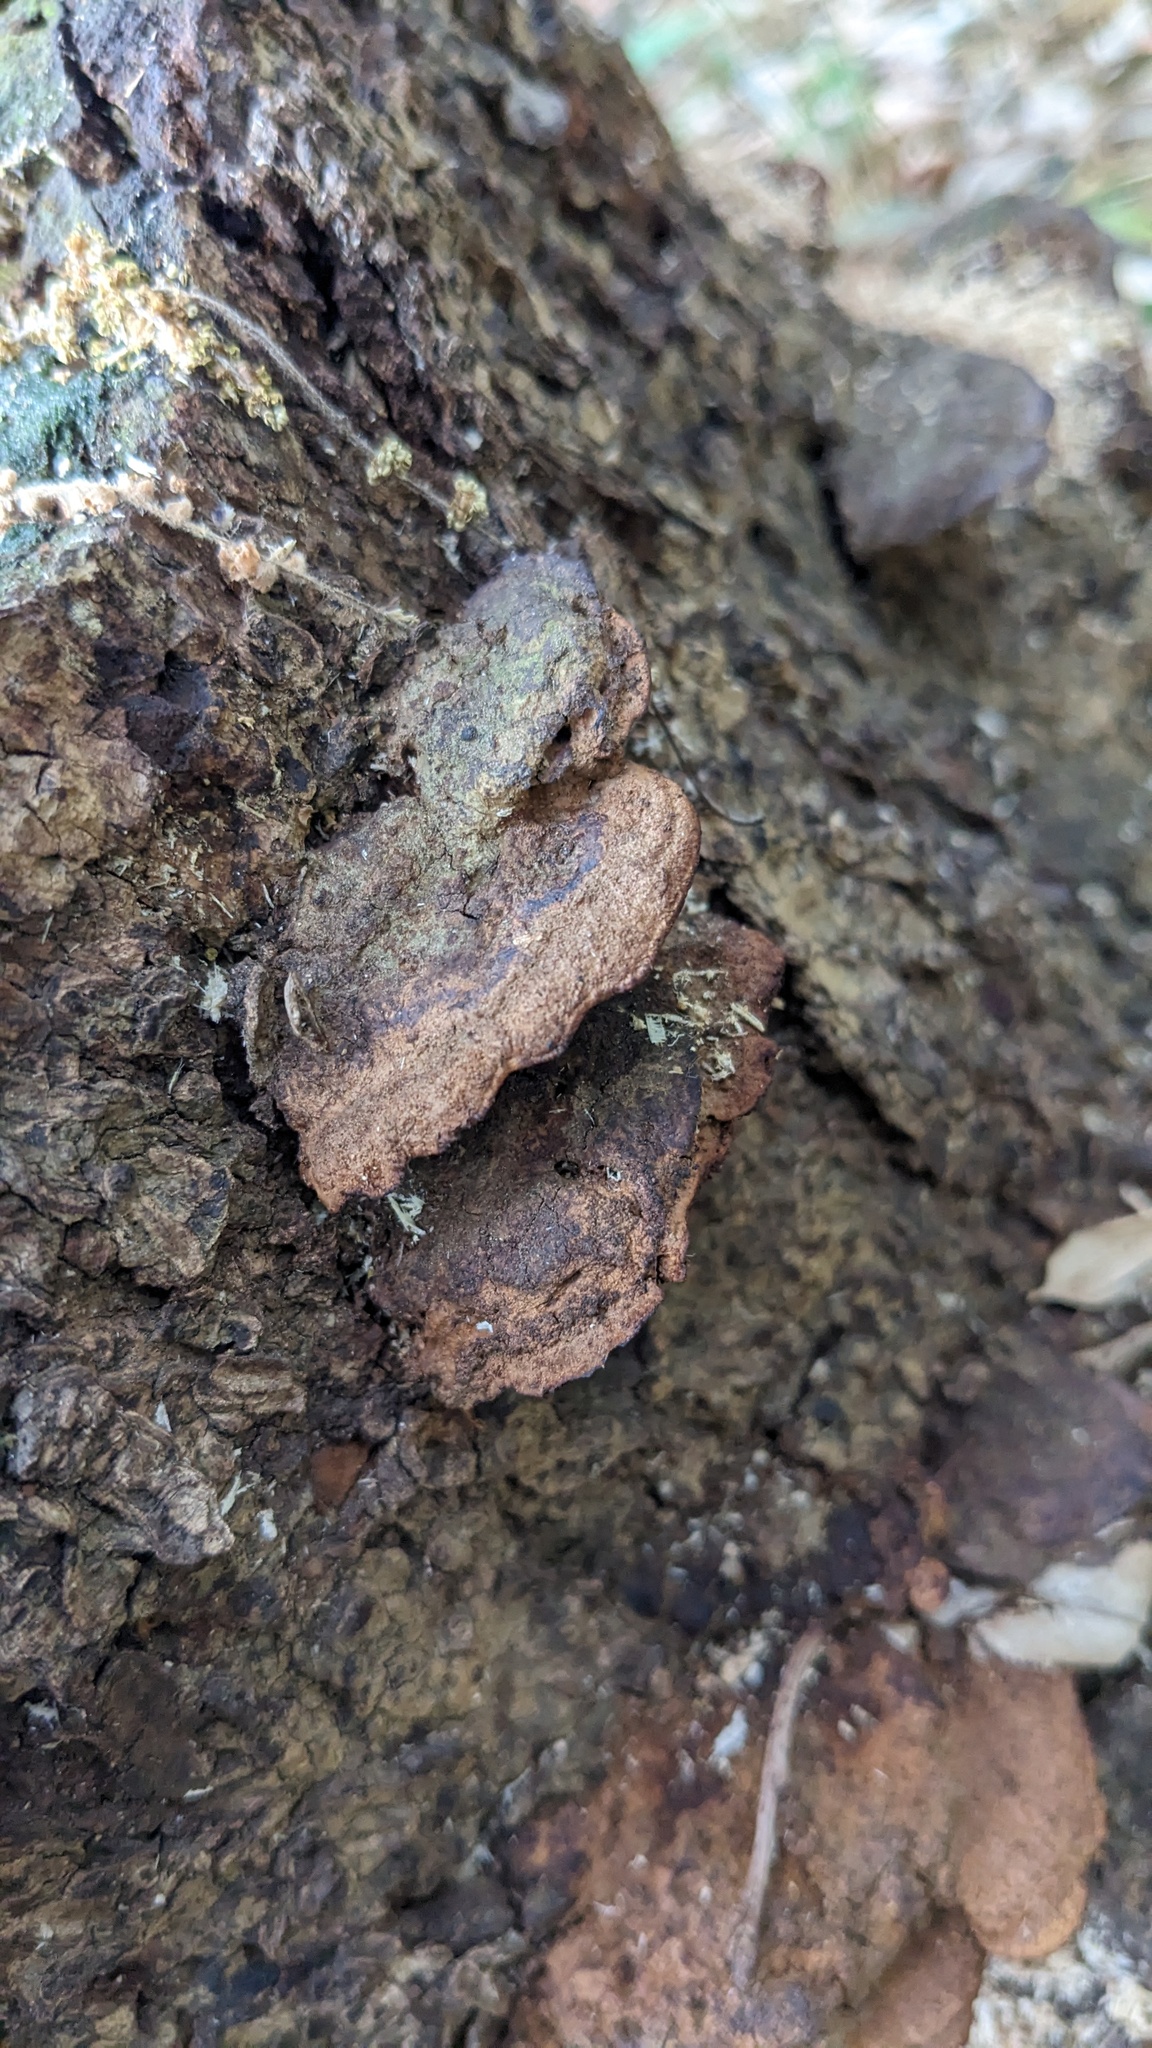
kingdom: Fungi
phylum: Basidiomycota
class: Agaricomycetes
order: Hymenochaetales
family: Hymenochaetaceae
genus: Phellinus
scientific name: Phellinus gilvus
